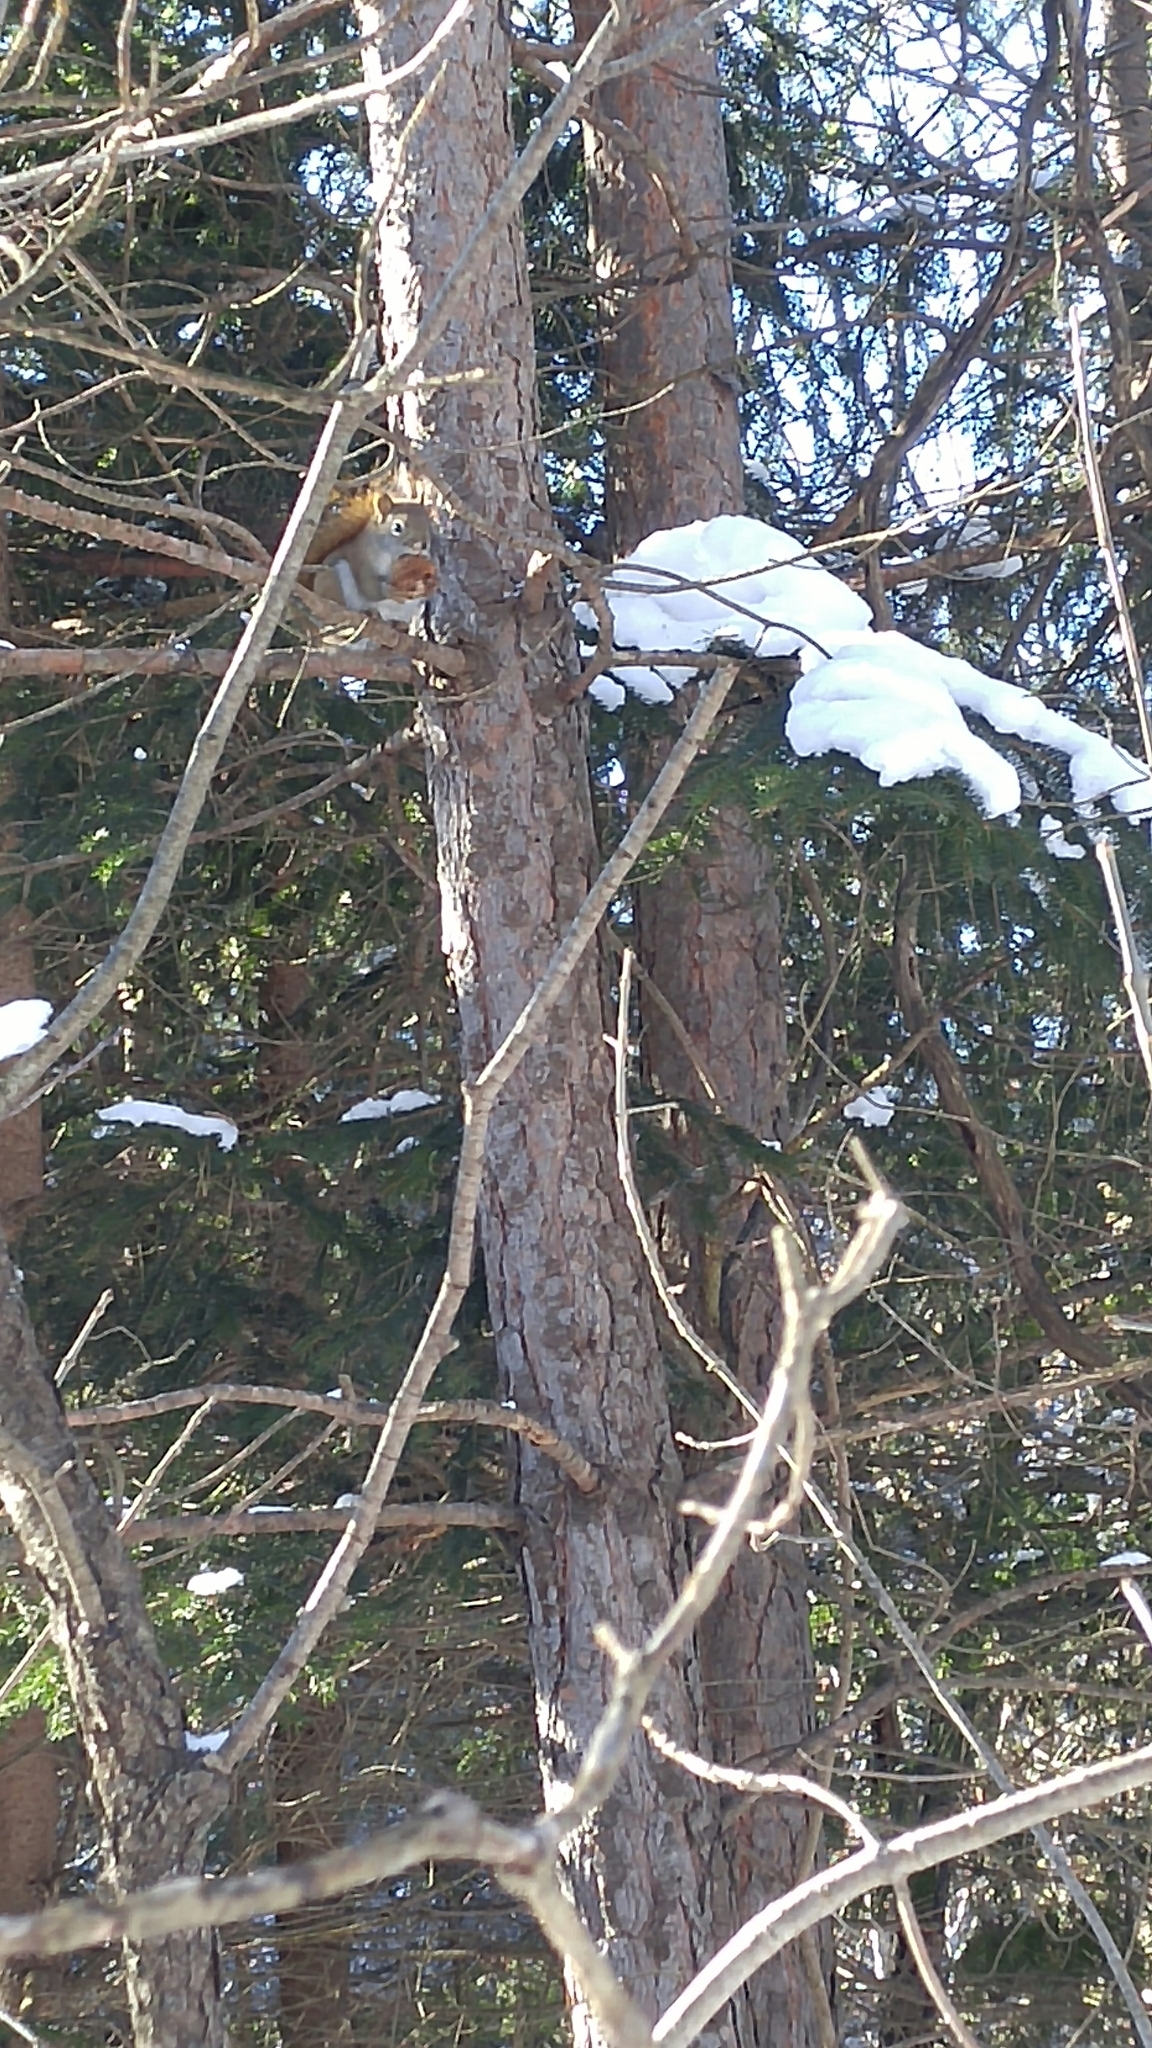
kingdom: Animalia
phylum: Chordata
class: Mammalia
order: Rodentia
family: Sciuridae
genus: Tamiasciurus
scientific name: Tamiasciurus hudsonicus
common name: Red squirrel
